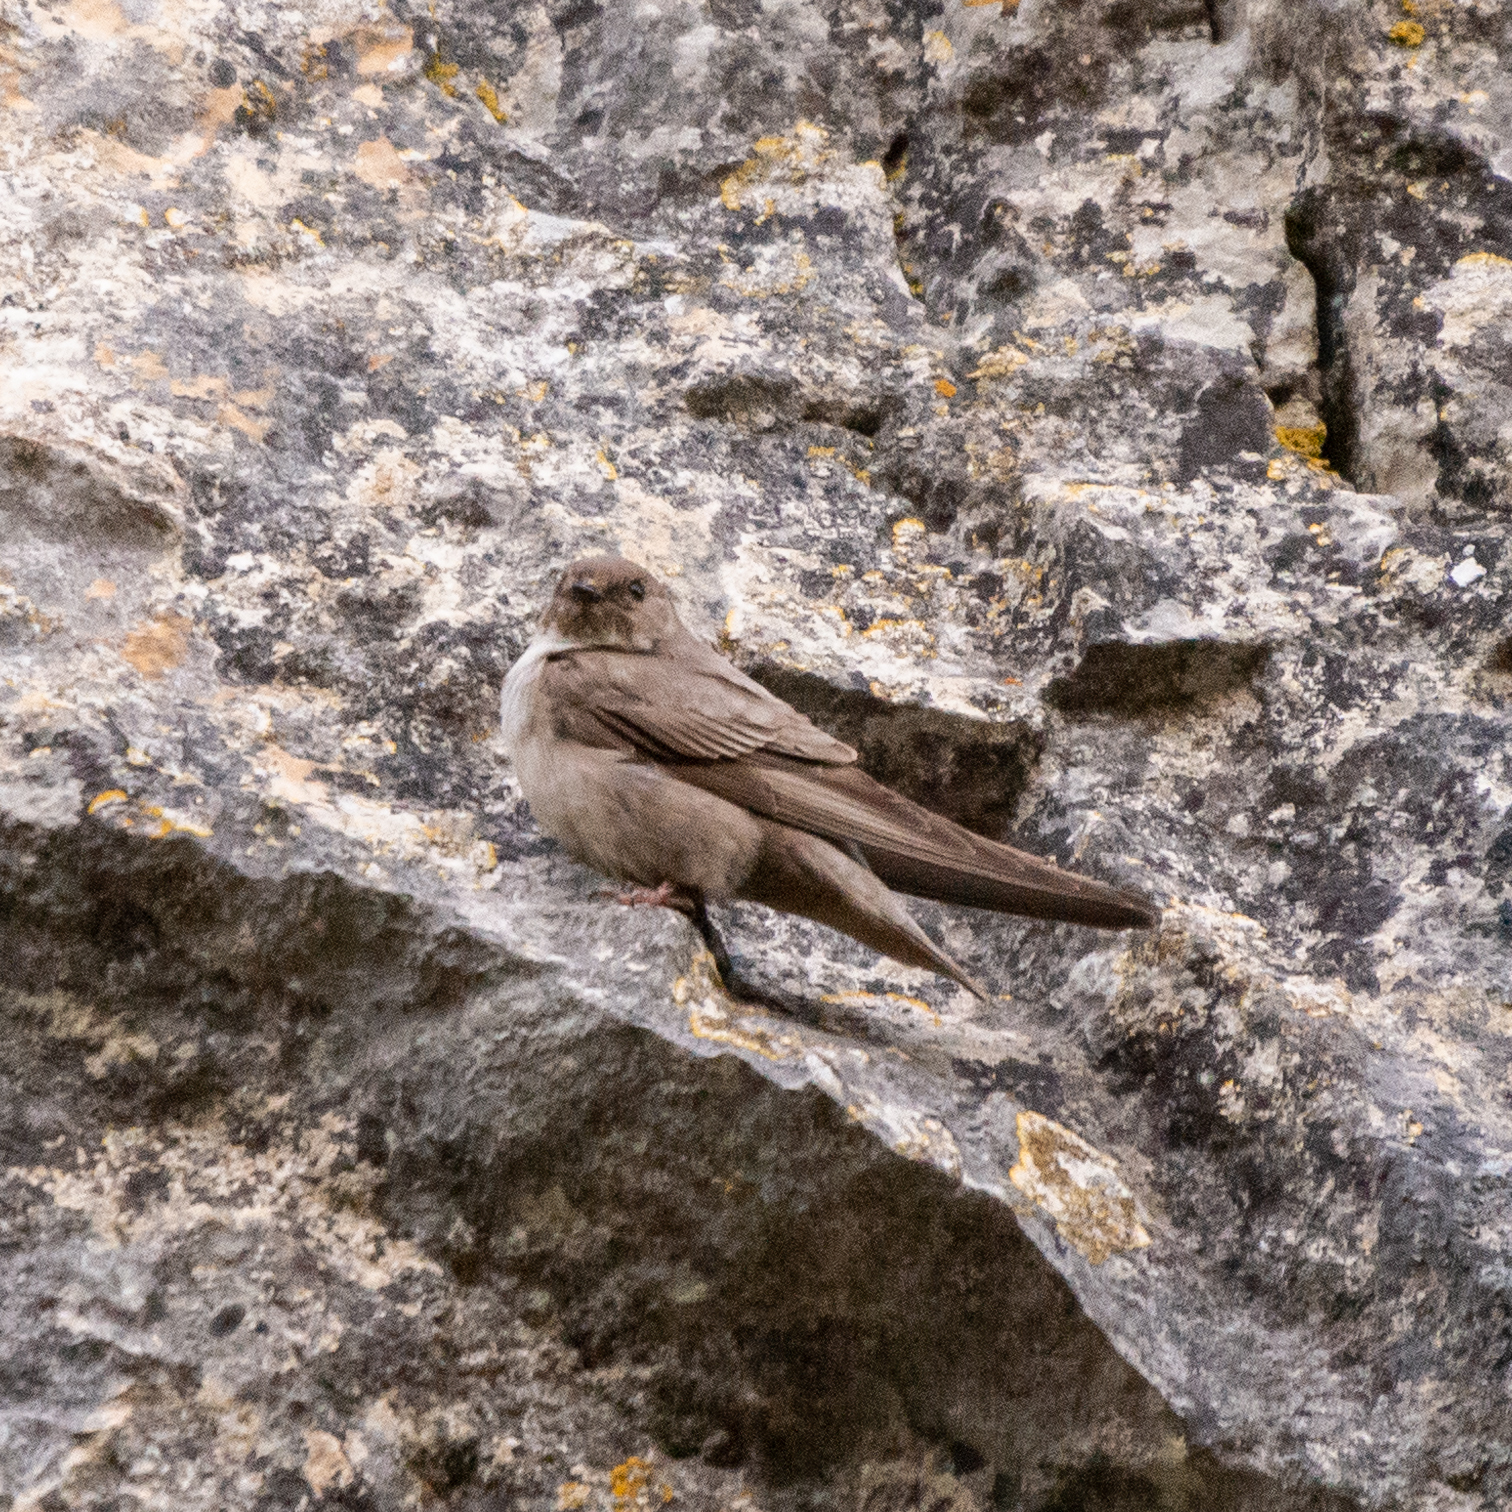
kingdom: Animalia
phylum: Chordata
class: Aves
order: Passeriformes
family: Hirundinidae
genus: Ptyonoprogne
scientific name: Ptyonoprogne rupestris
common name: Eurasian crag martin
